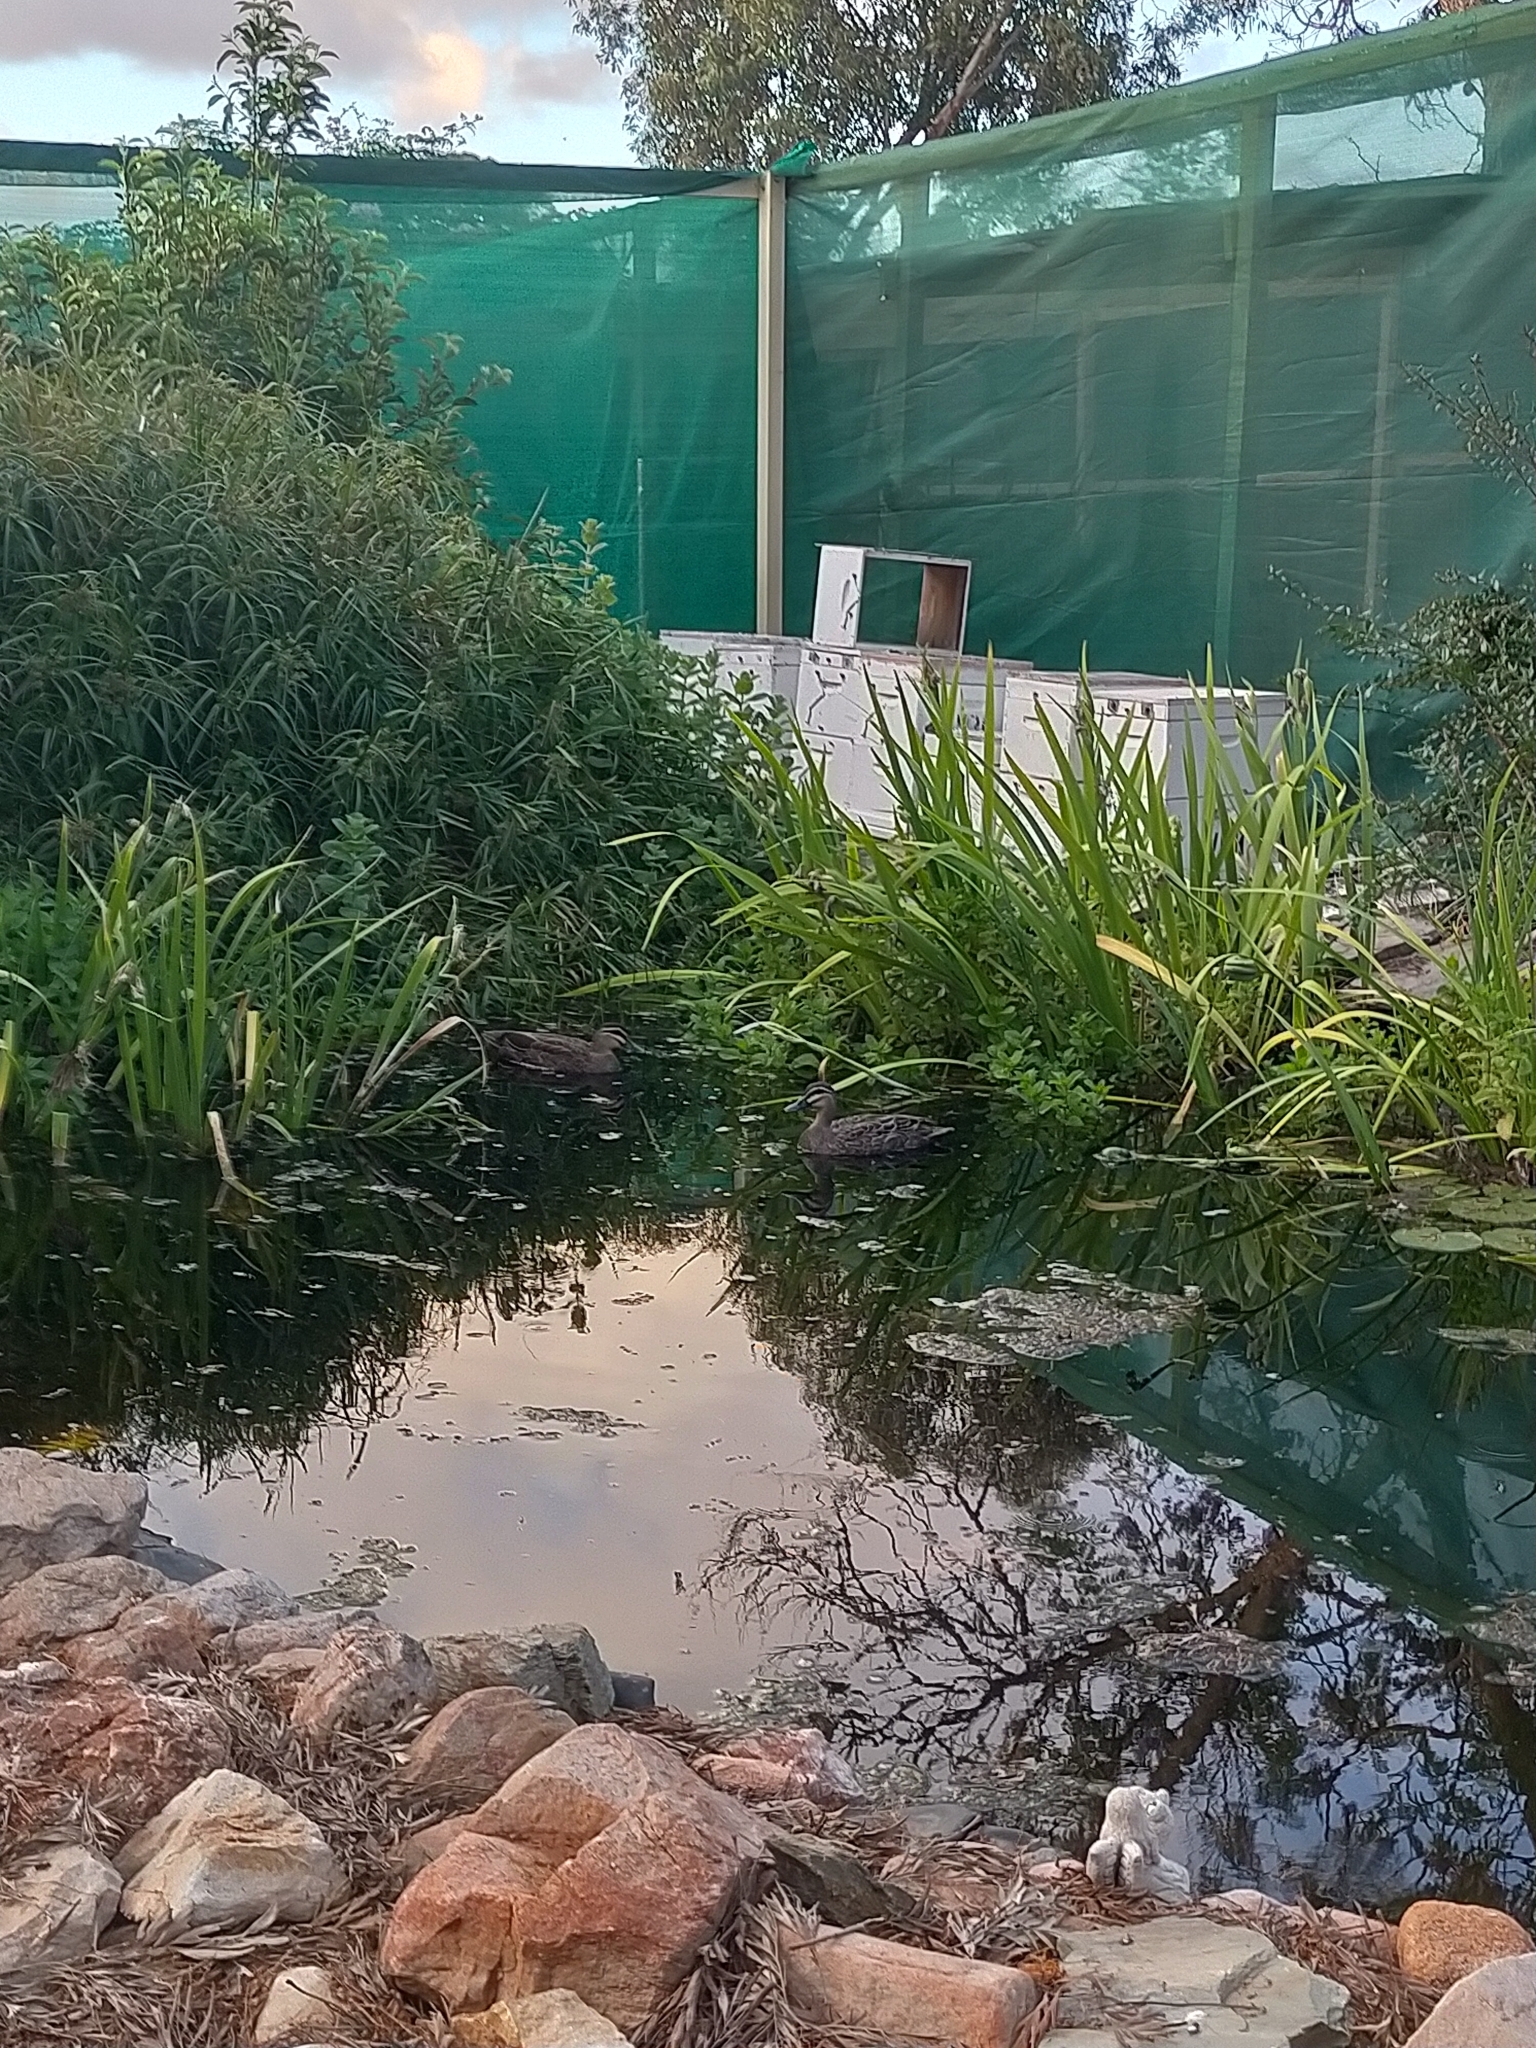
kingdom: Animalia
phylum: Chordata
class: Aves
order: Anseriformes
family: Anatidae
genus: Anas
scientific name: Anas superciliosa
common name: Pacific black duck
